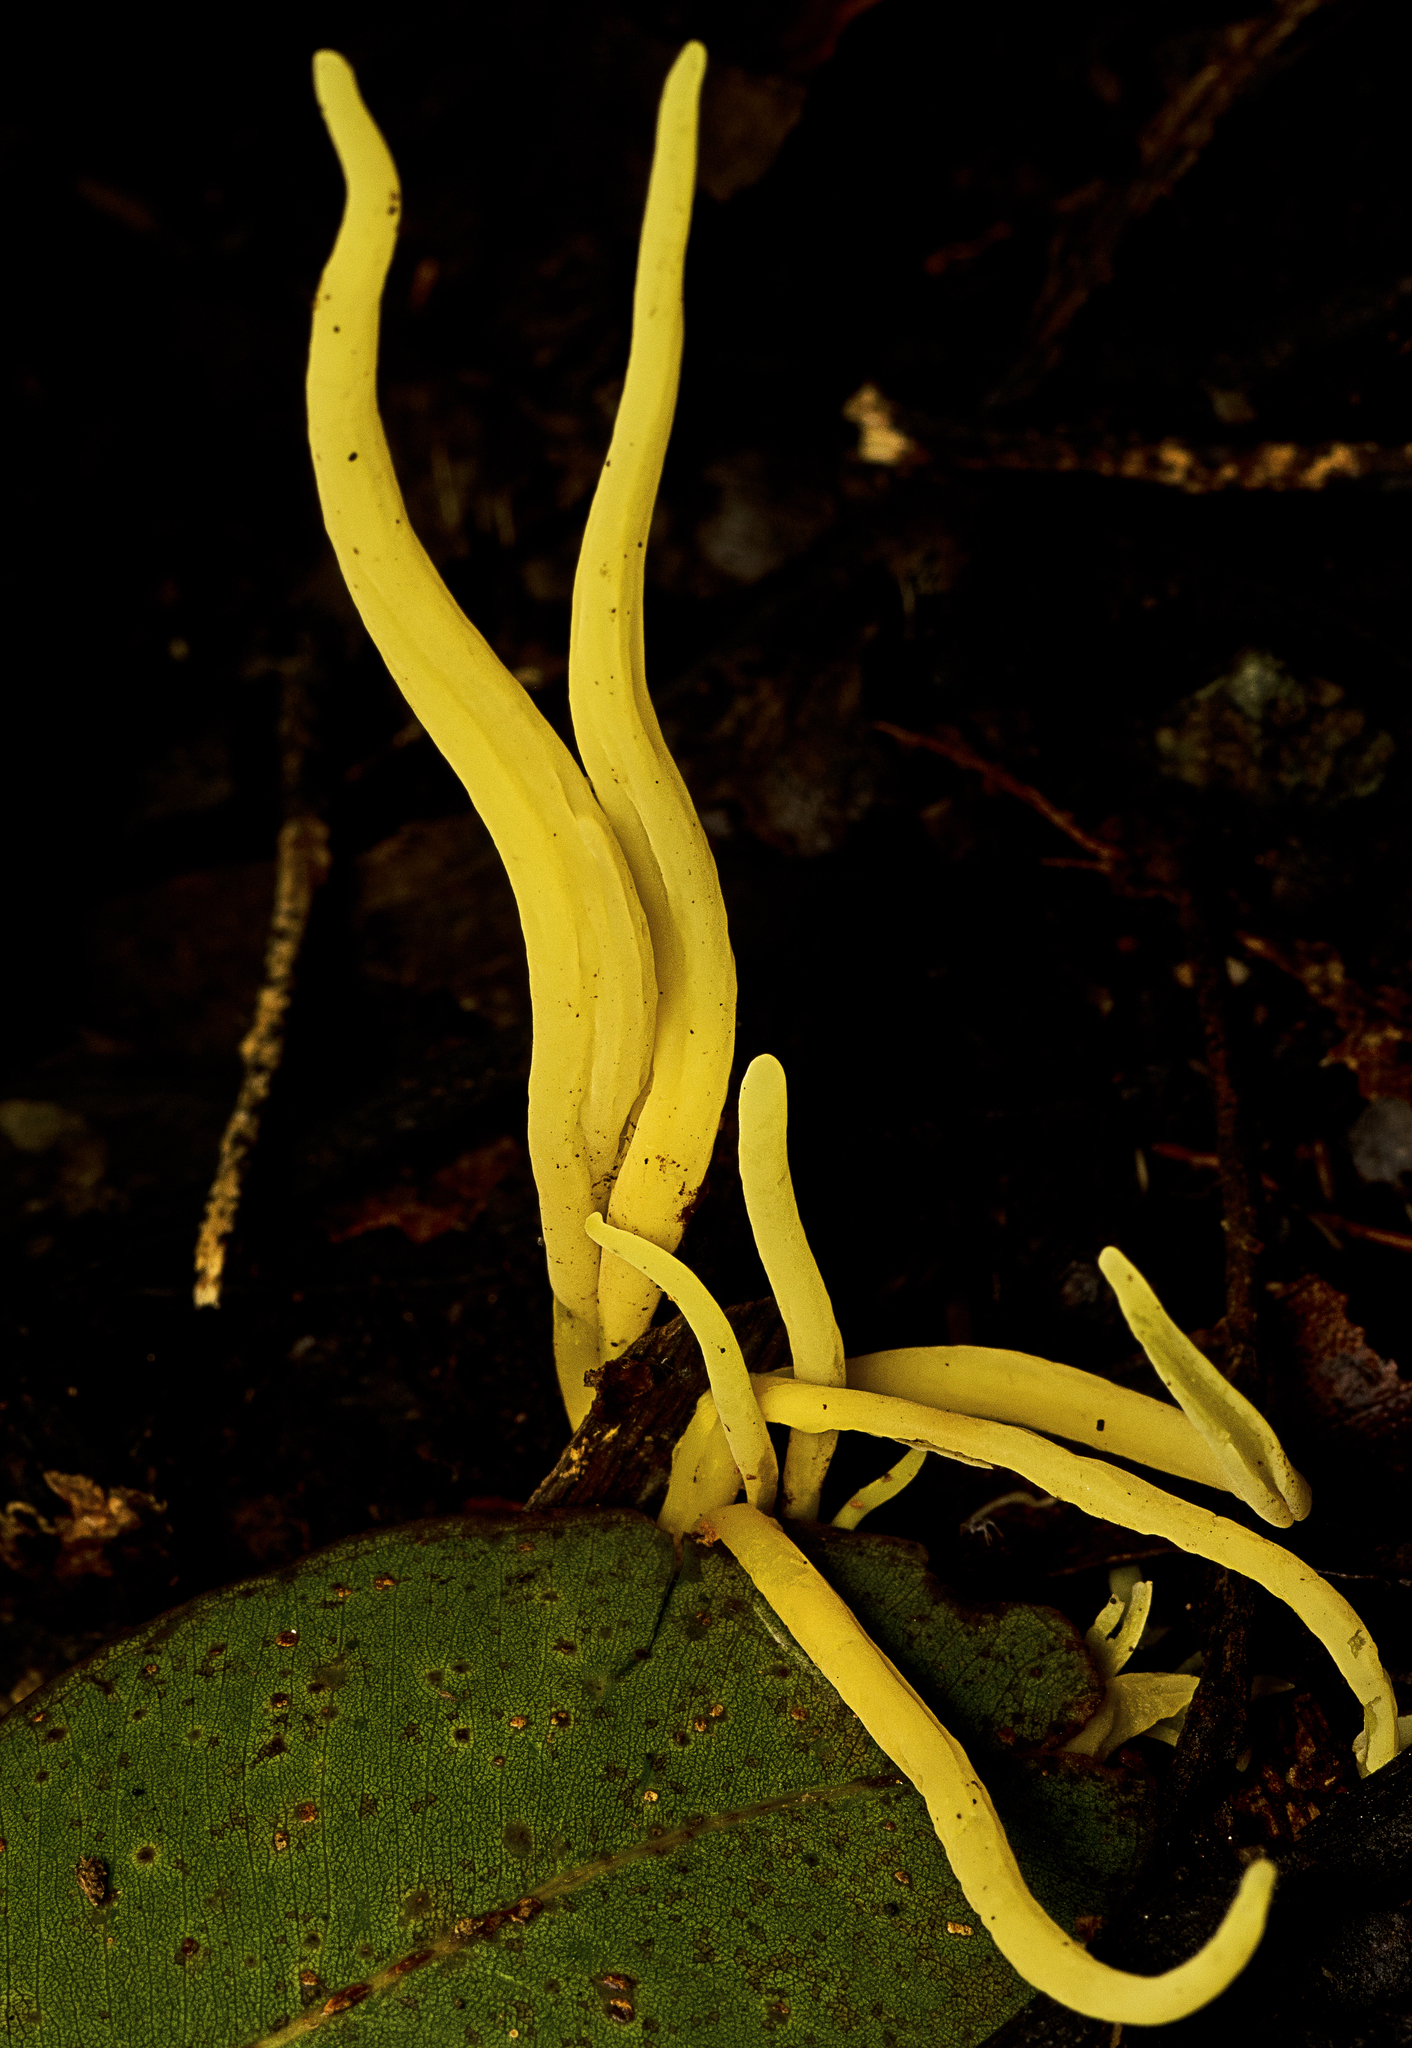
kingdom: Fungi
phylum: Basidiomycota
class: Agaricomycetes
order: Agaricales
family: Clavariaceae
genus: Clavulinopsis
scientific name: Clavulinopsis amoena
